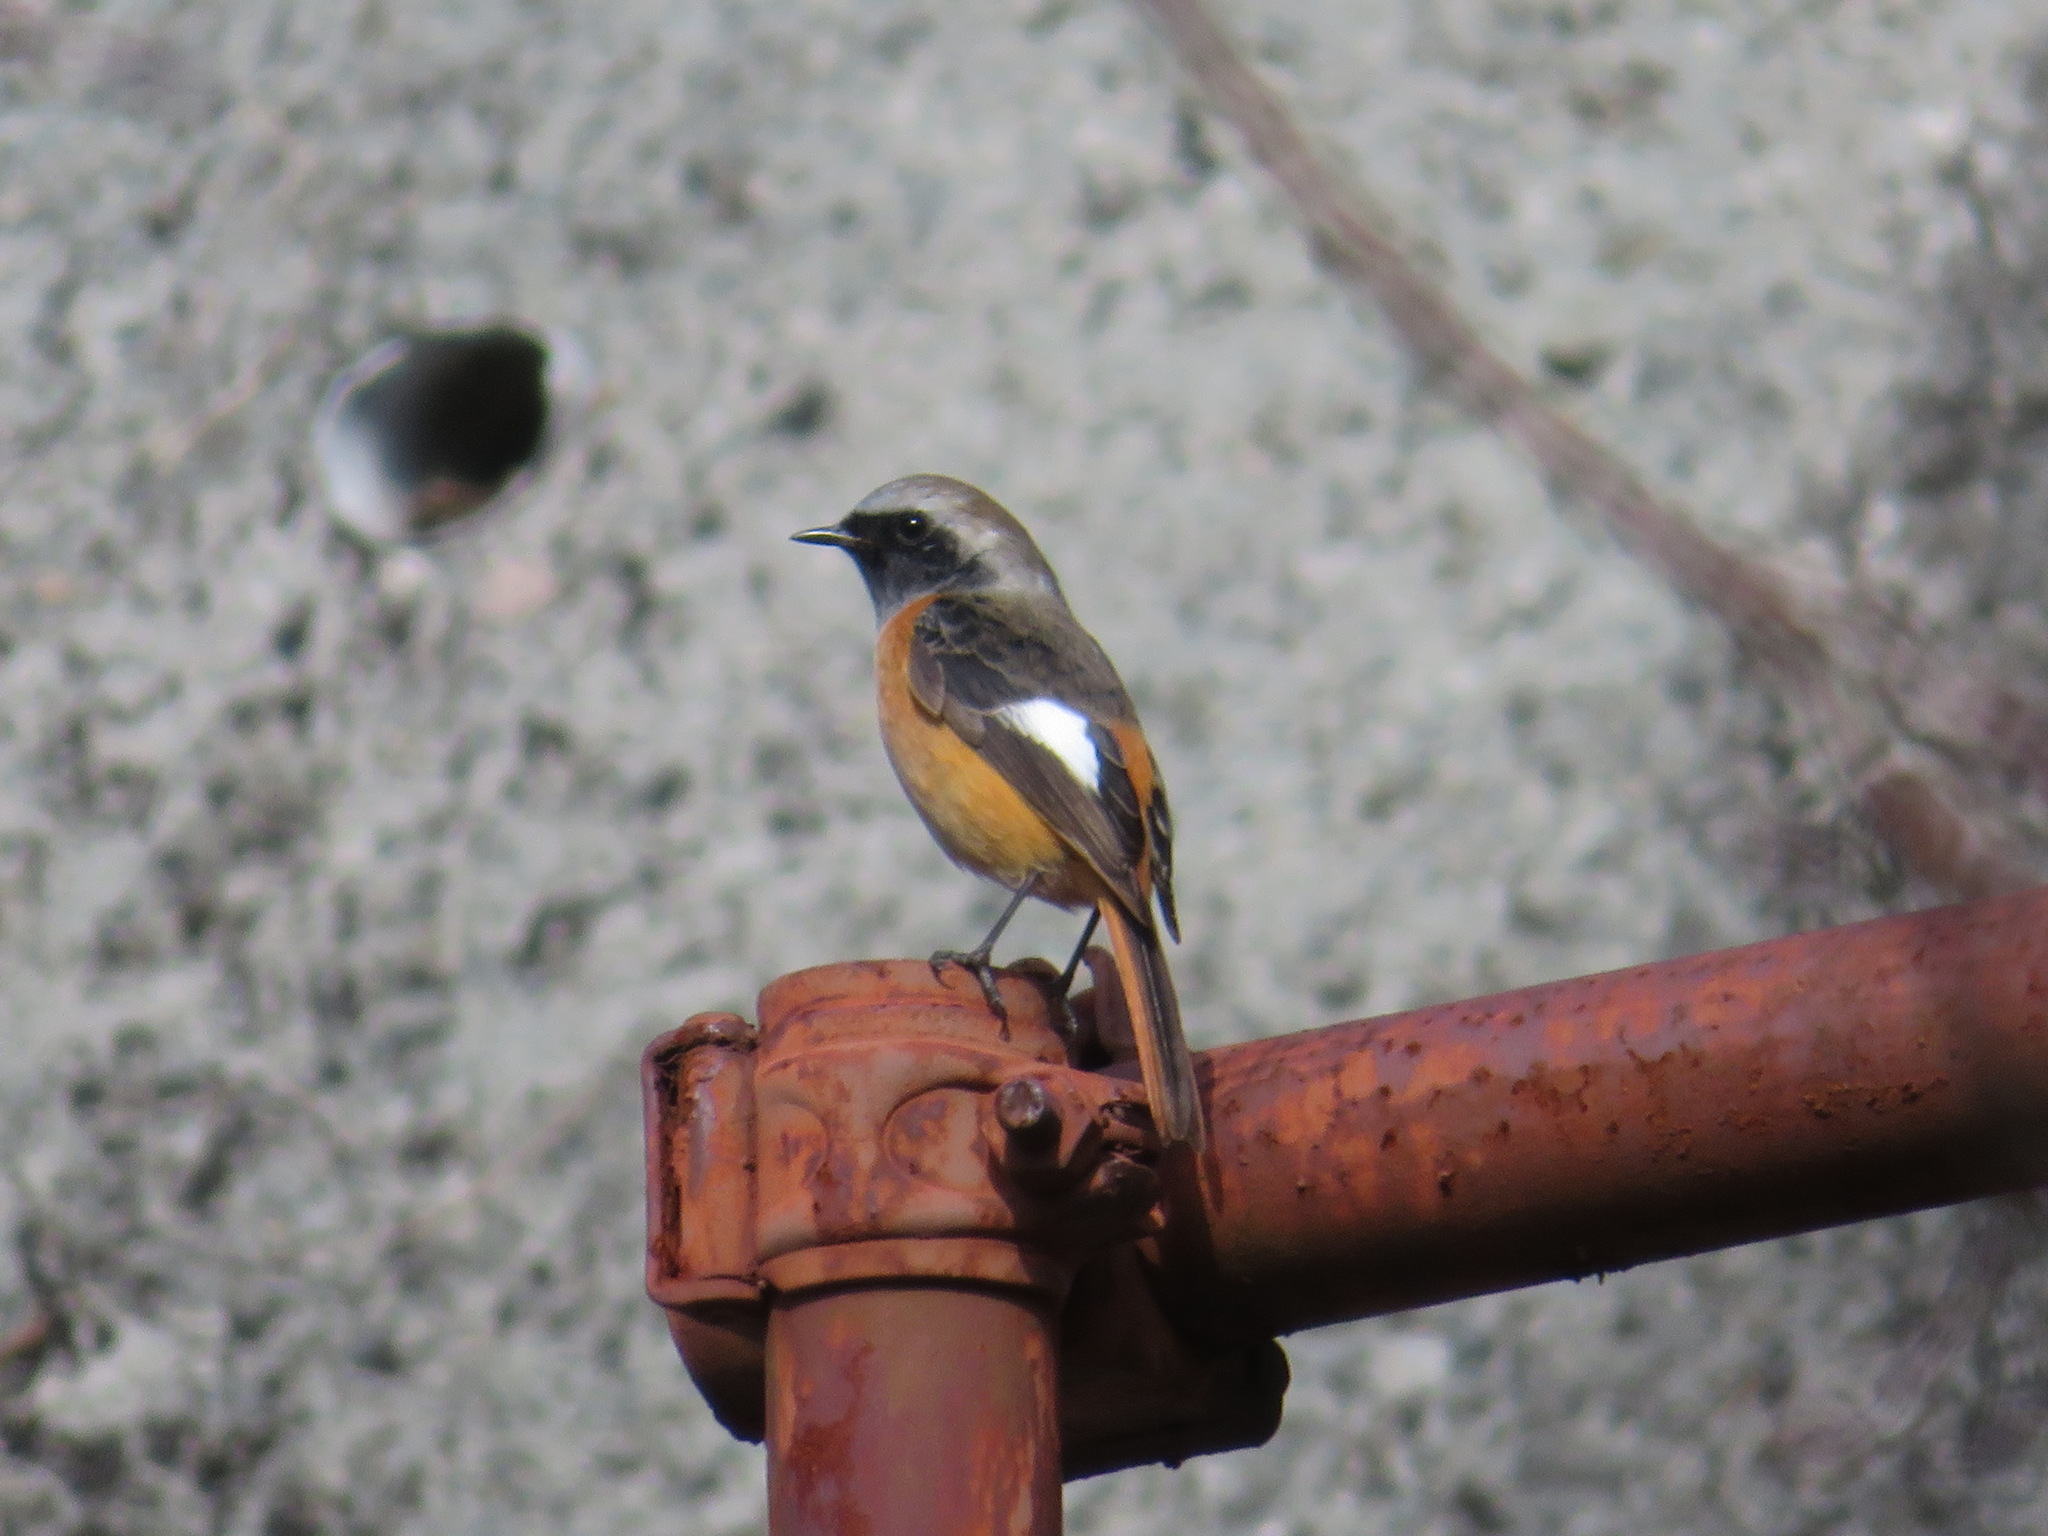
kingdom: Animalia
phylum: Chordata
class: Aves
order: Passeriformes
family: Muscicapidae
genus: Phoenicurus
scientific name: Phoenicurus auroreus
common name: Daurian redstart
